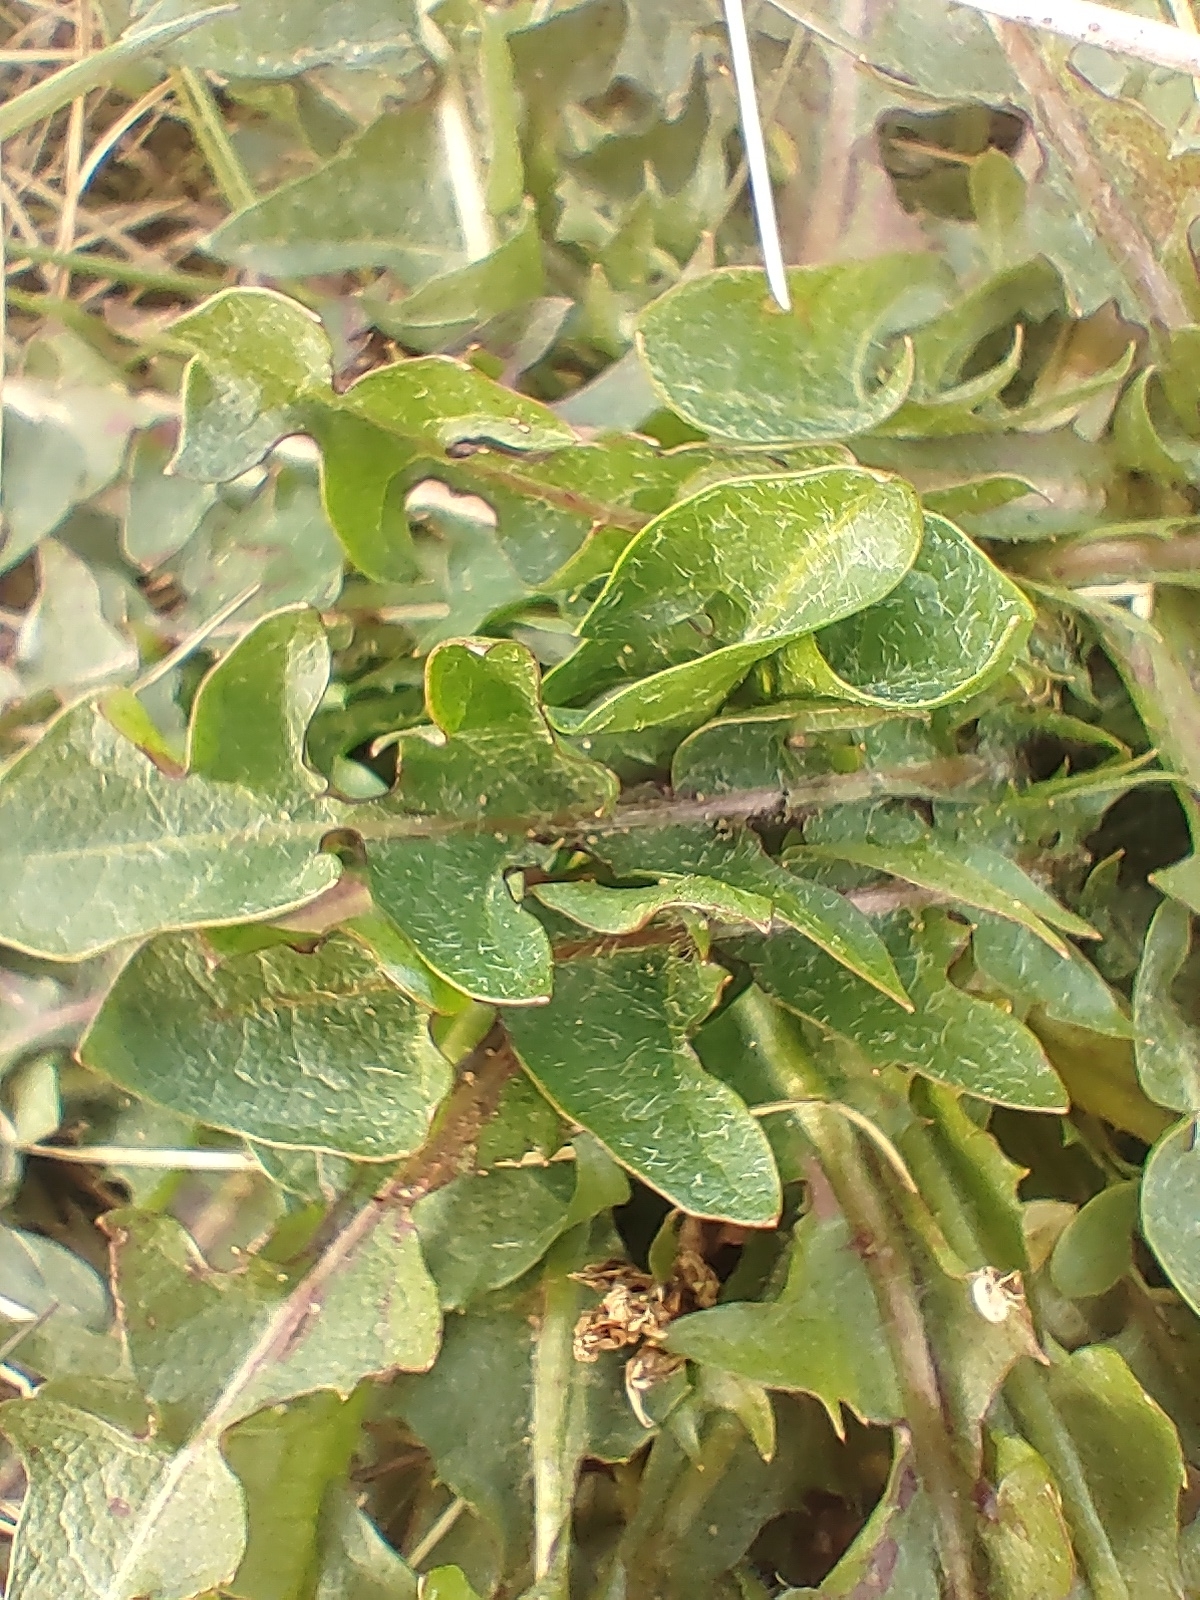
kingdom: Plantae
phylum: Tracheophyta
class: Magnoliopsida
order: Asterales
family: Asteraceae
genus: Taraxacum
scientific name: Taraxacum officinale
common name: Common dandelion
